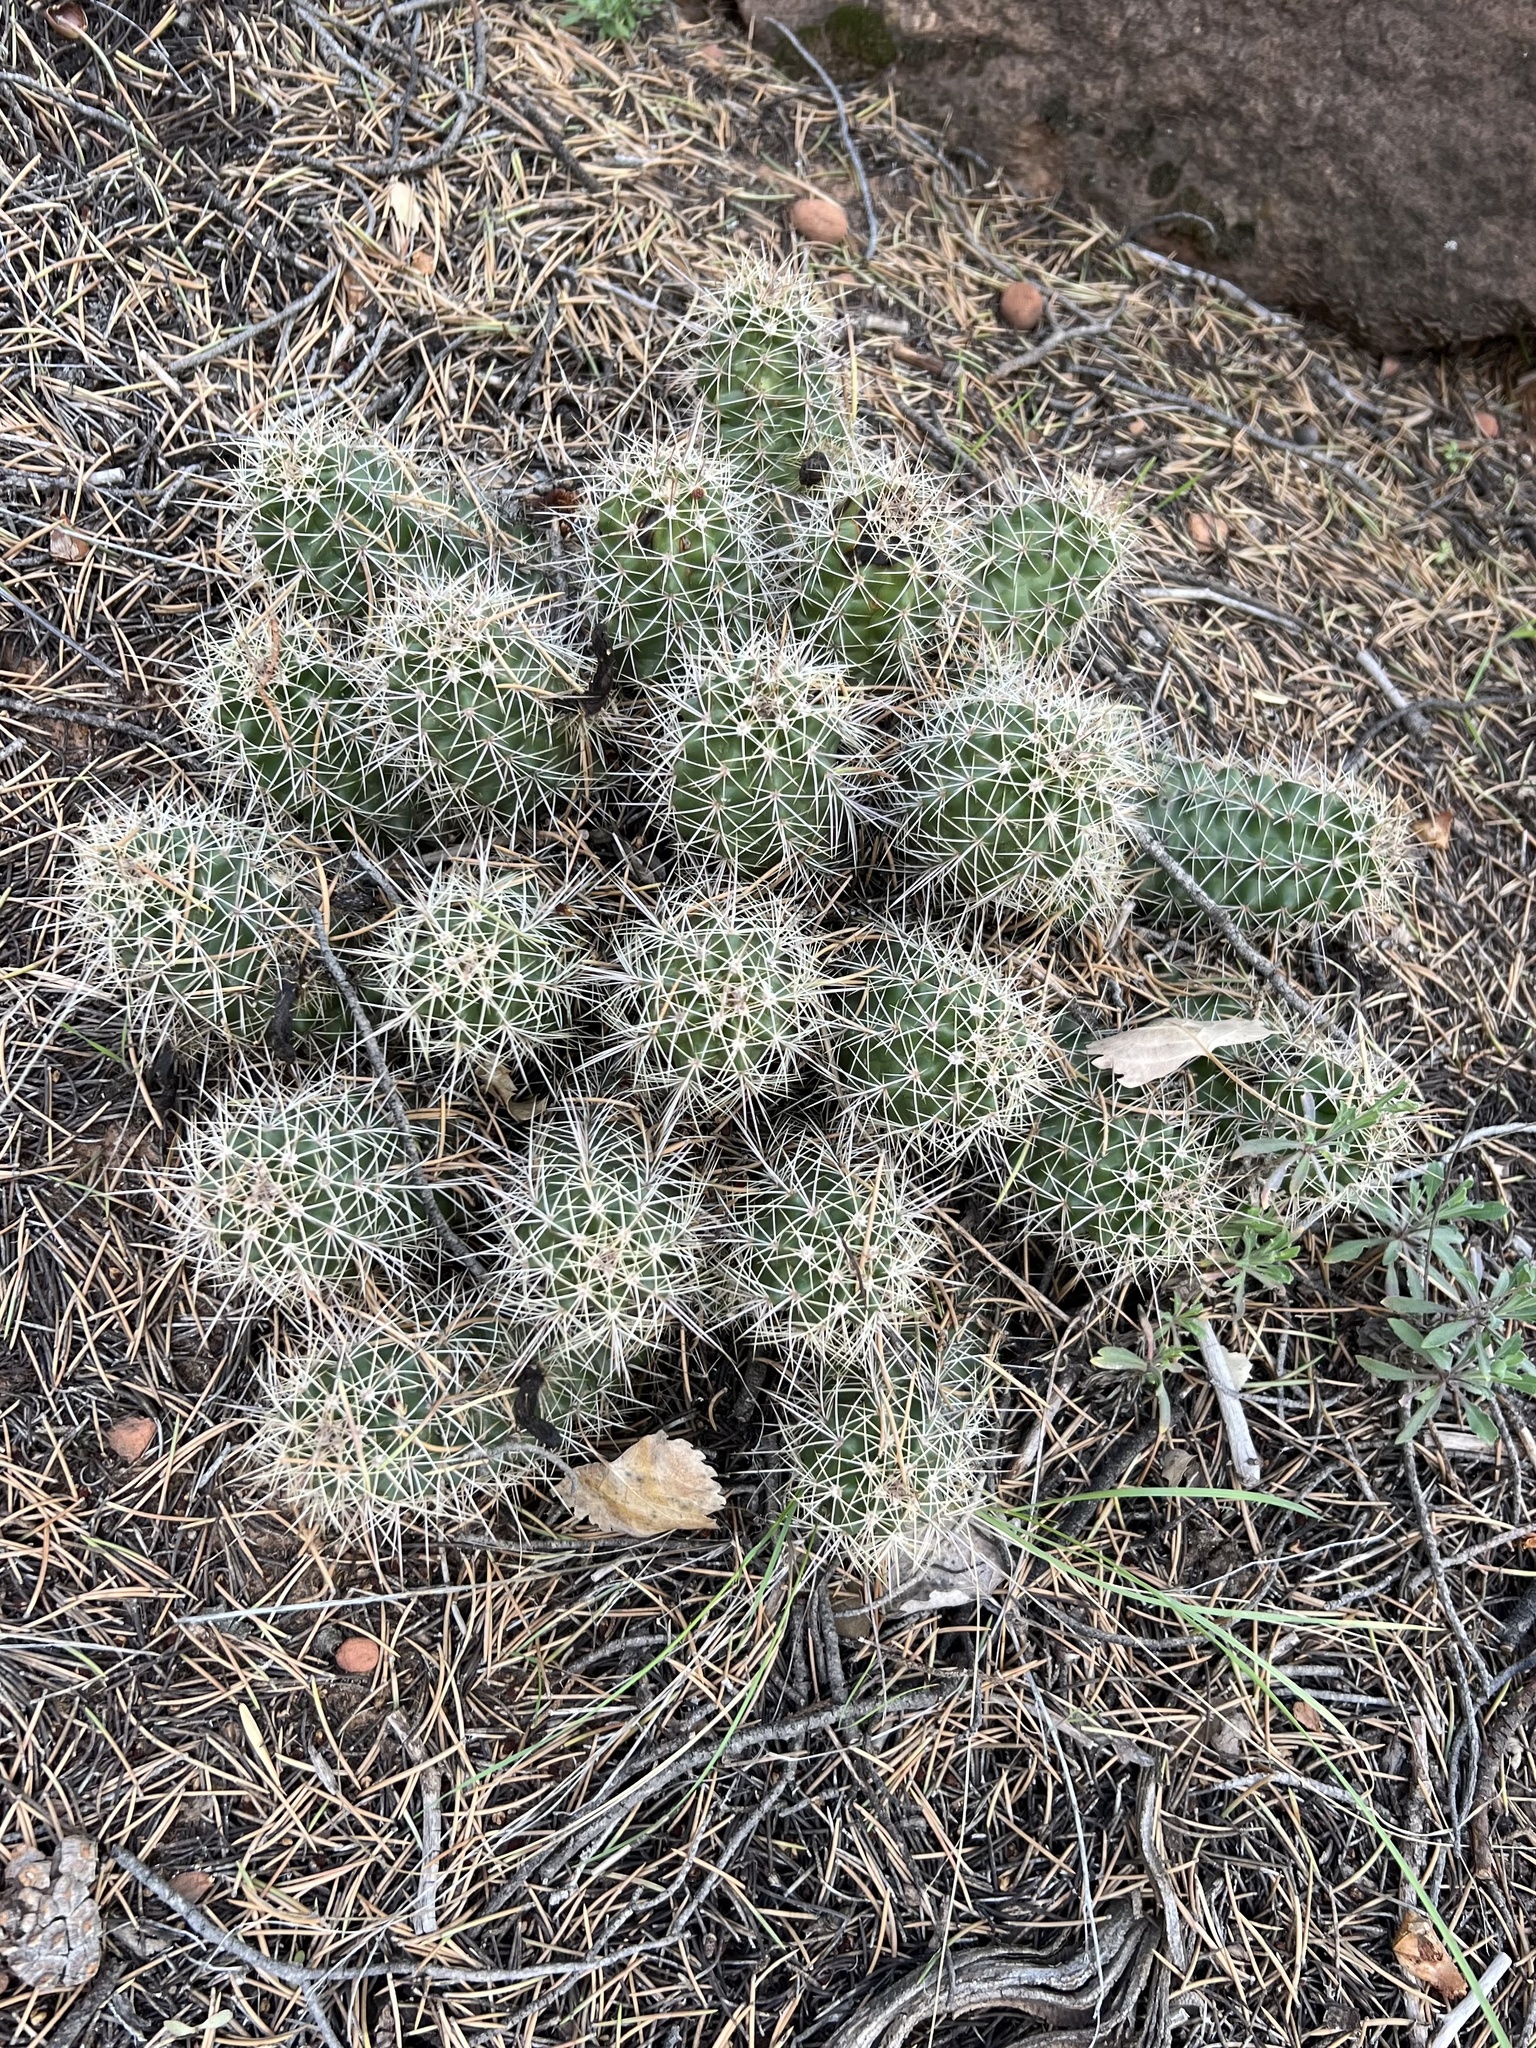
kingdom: Plantae
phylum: Tracheophyta
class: Magnoliopsida
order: Caryophyllales
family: Cactaceae
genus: Echinocereus
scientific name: Echinocereus triglochidiatus
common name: Claretcup hedgehog
